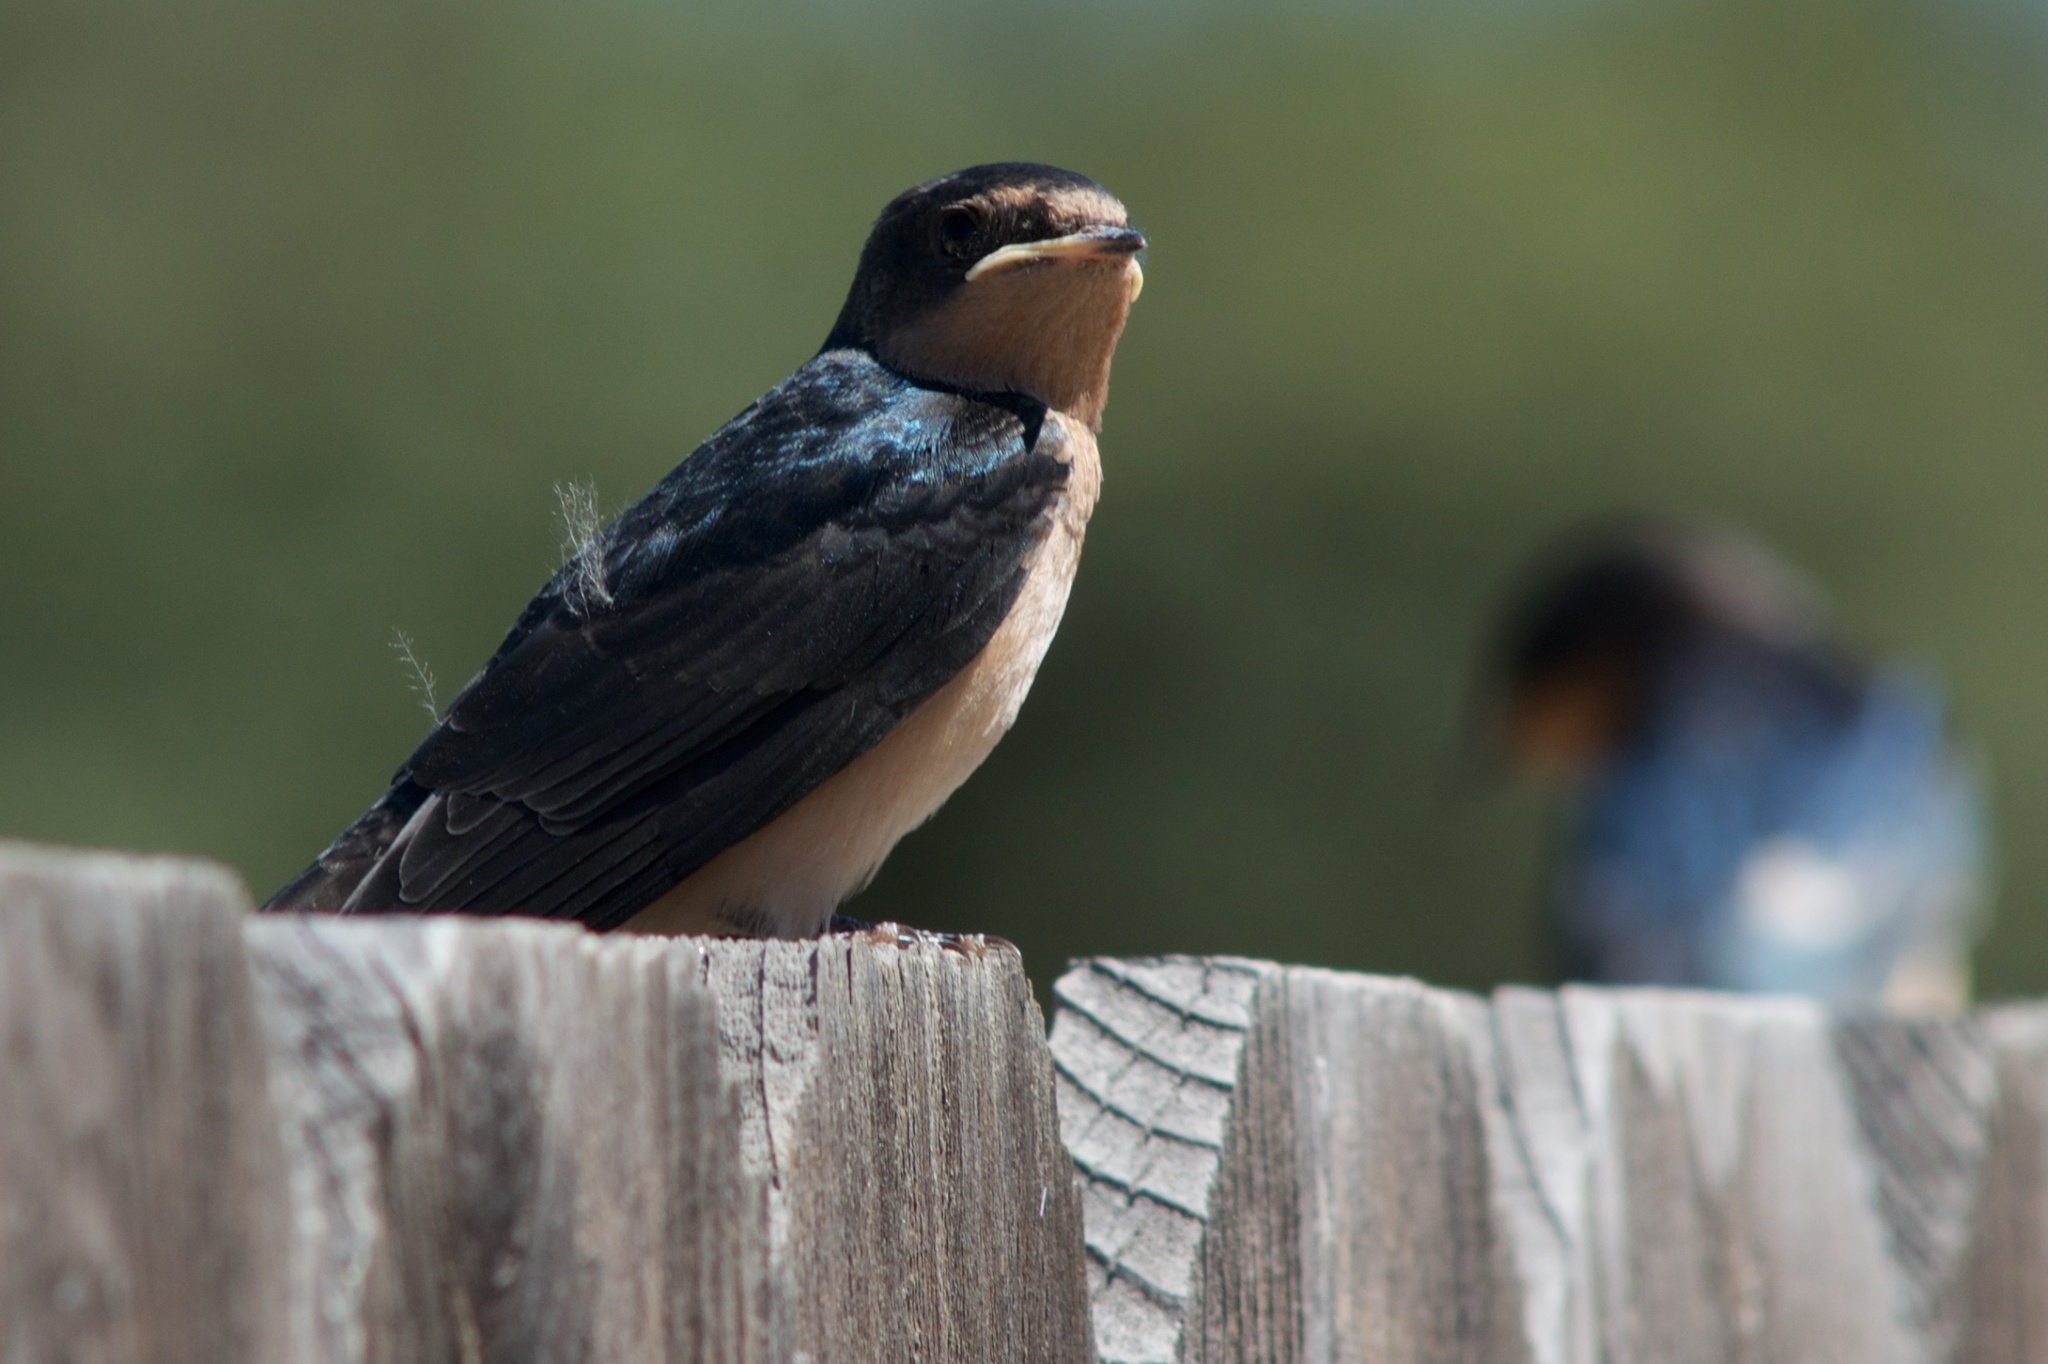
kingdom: Animalia
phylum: Chordata
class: Aves
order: Passeriformes
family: Hirundinidae
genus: Hirundo
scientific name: Hirundo rustica
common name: Barn swallow
